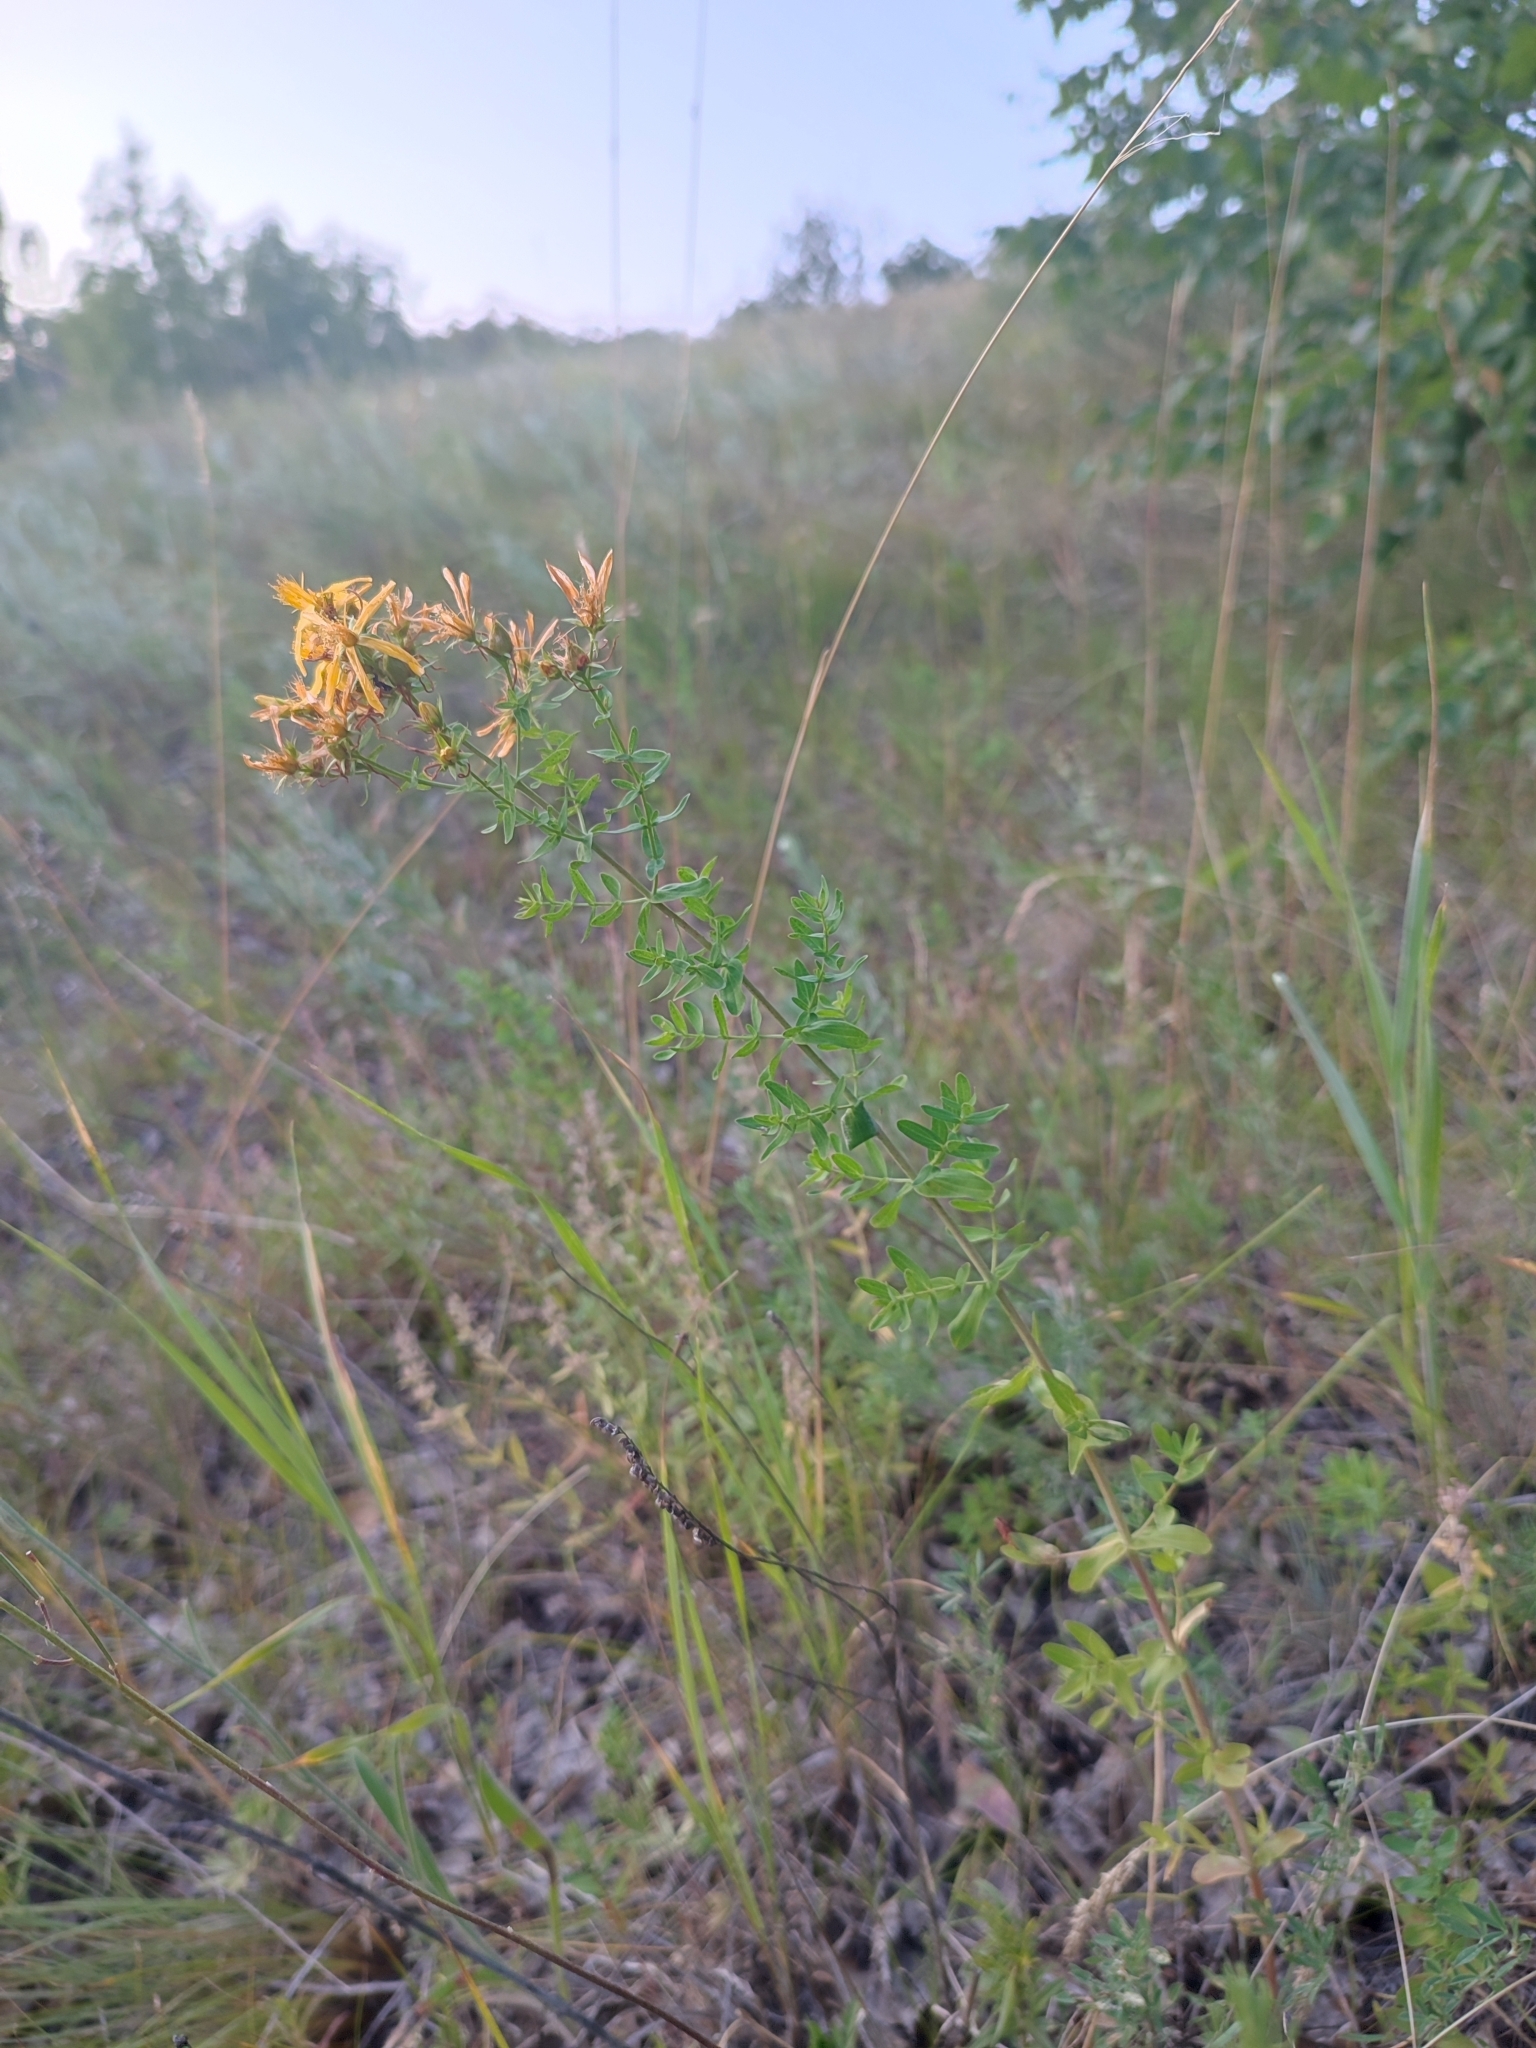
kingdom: Plantae
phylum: Tracheophyta
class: Magnoliopsida
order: Malpighiales
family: Hypericaceae
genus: Hypericum
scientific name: Hypericum perforatum
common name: Common st. johnswort
